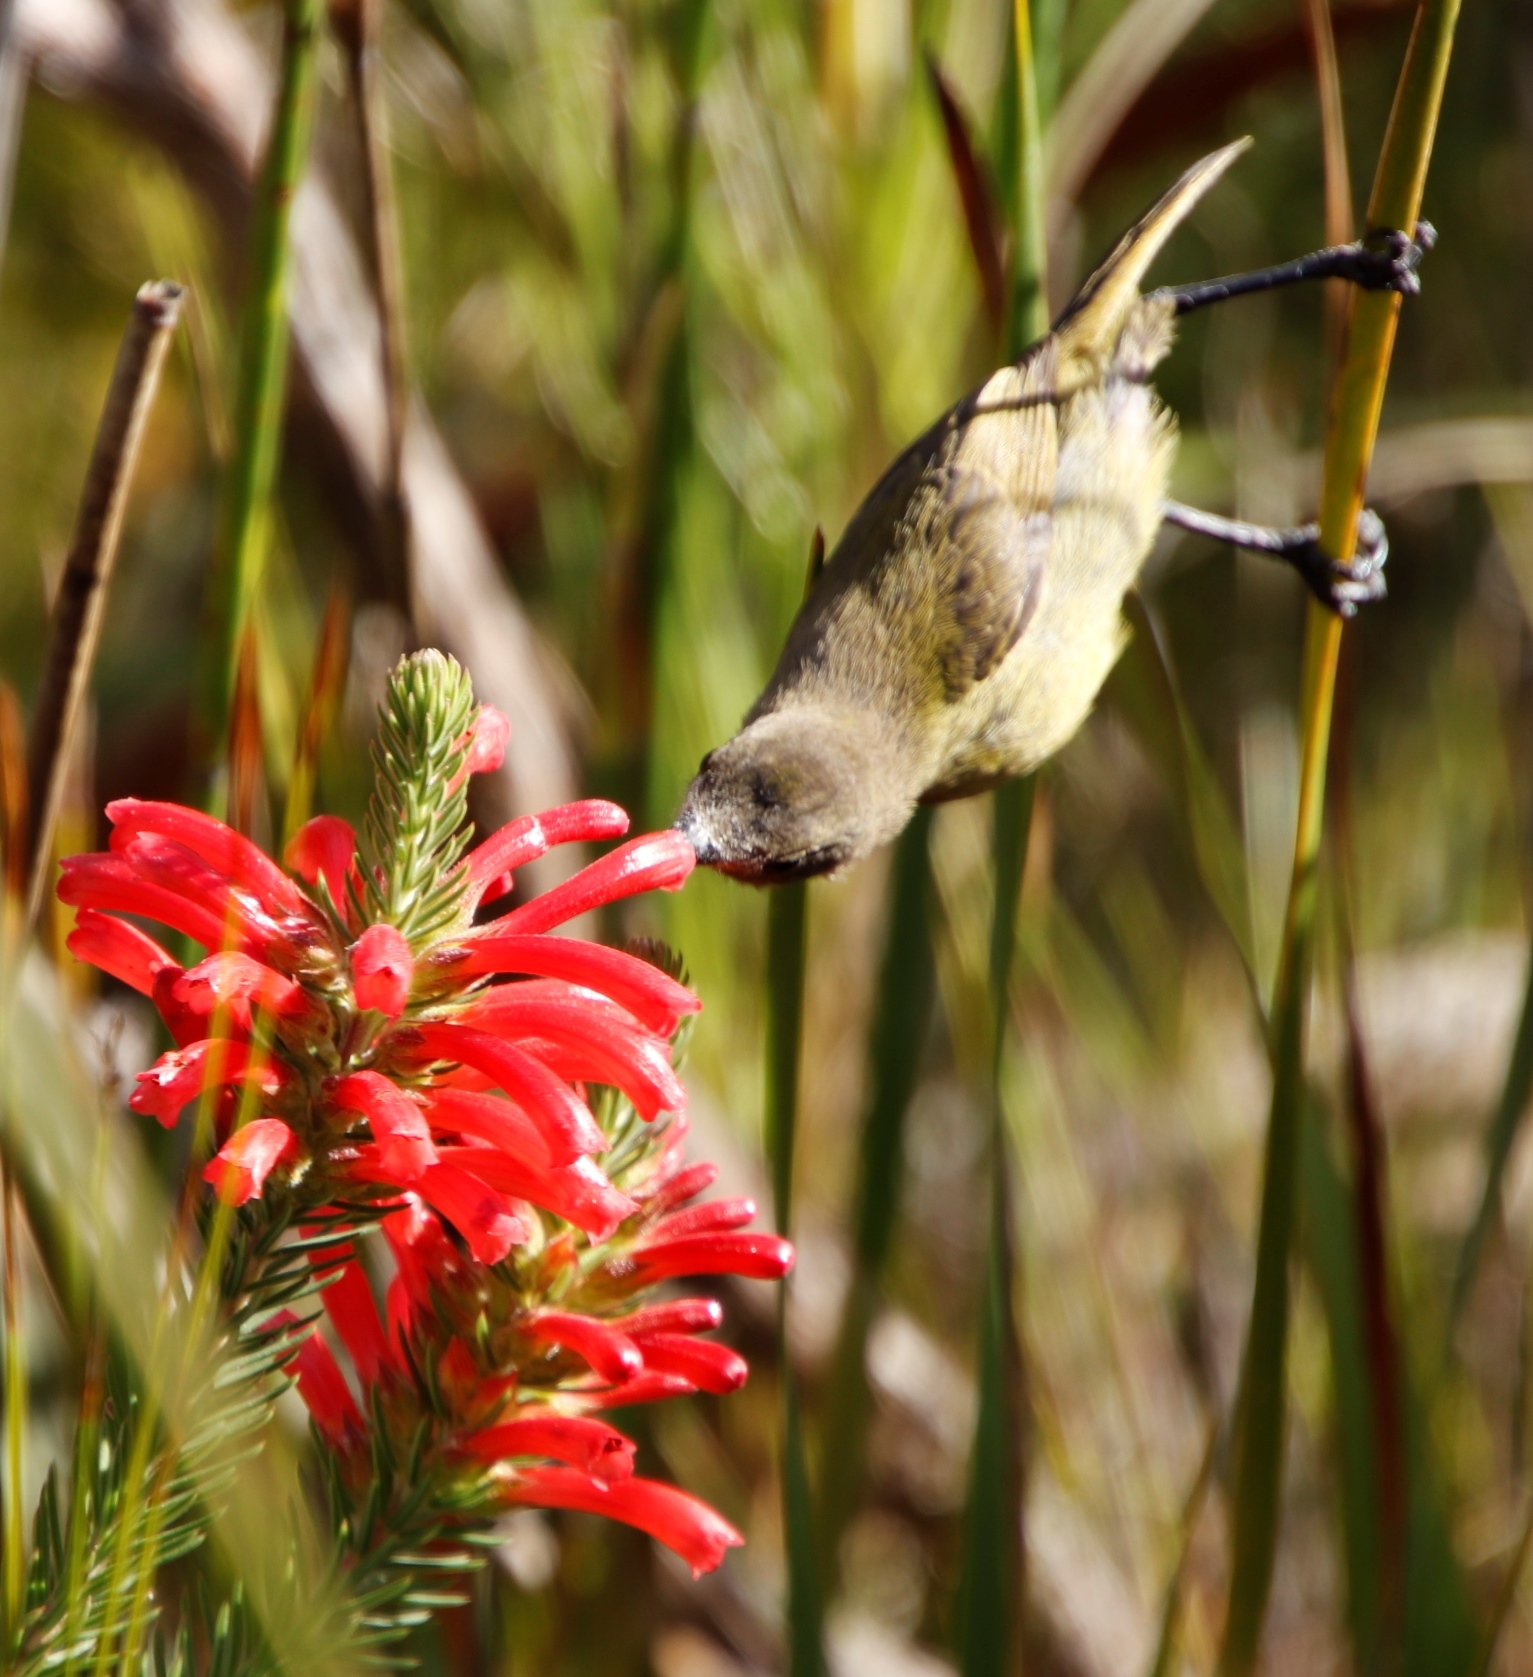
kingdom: Plantae
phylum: Tracheophyta
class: Magnoliopsida
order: Ericales
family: Ericaceae
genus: Erica
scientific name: Erica abietina
